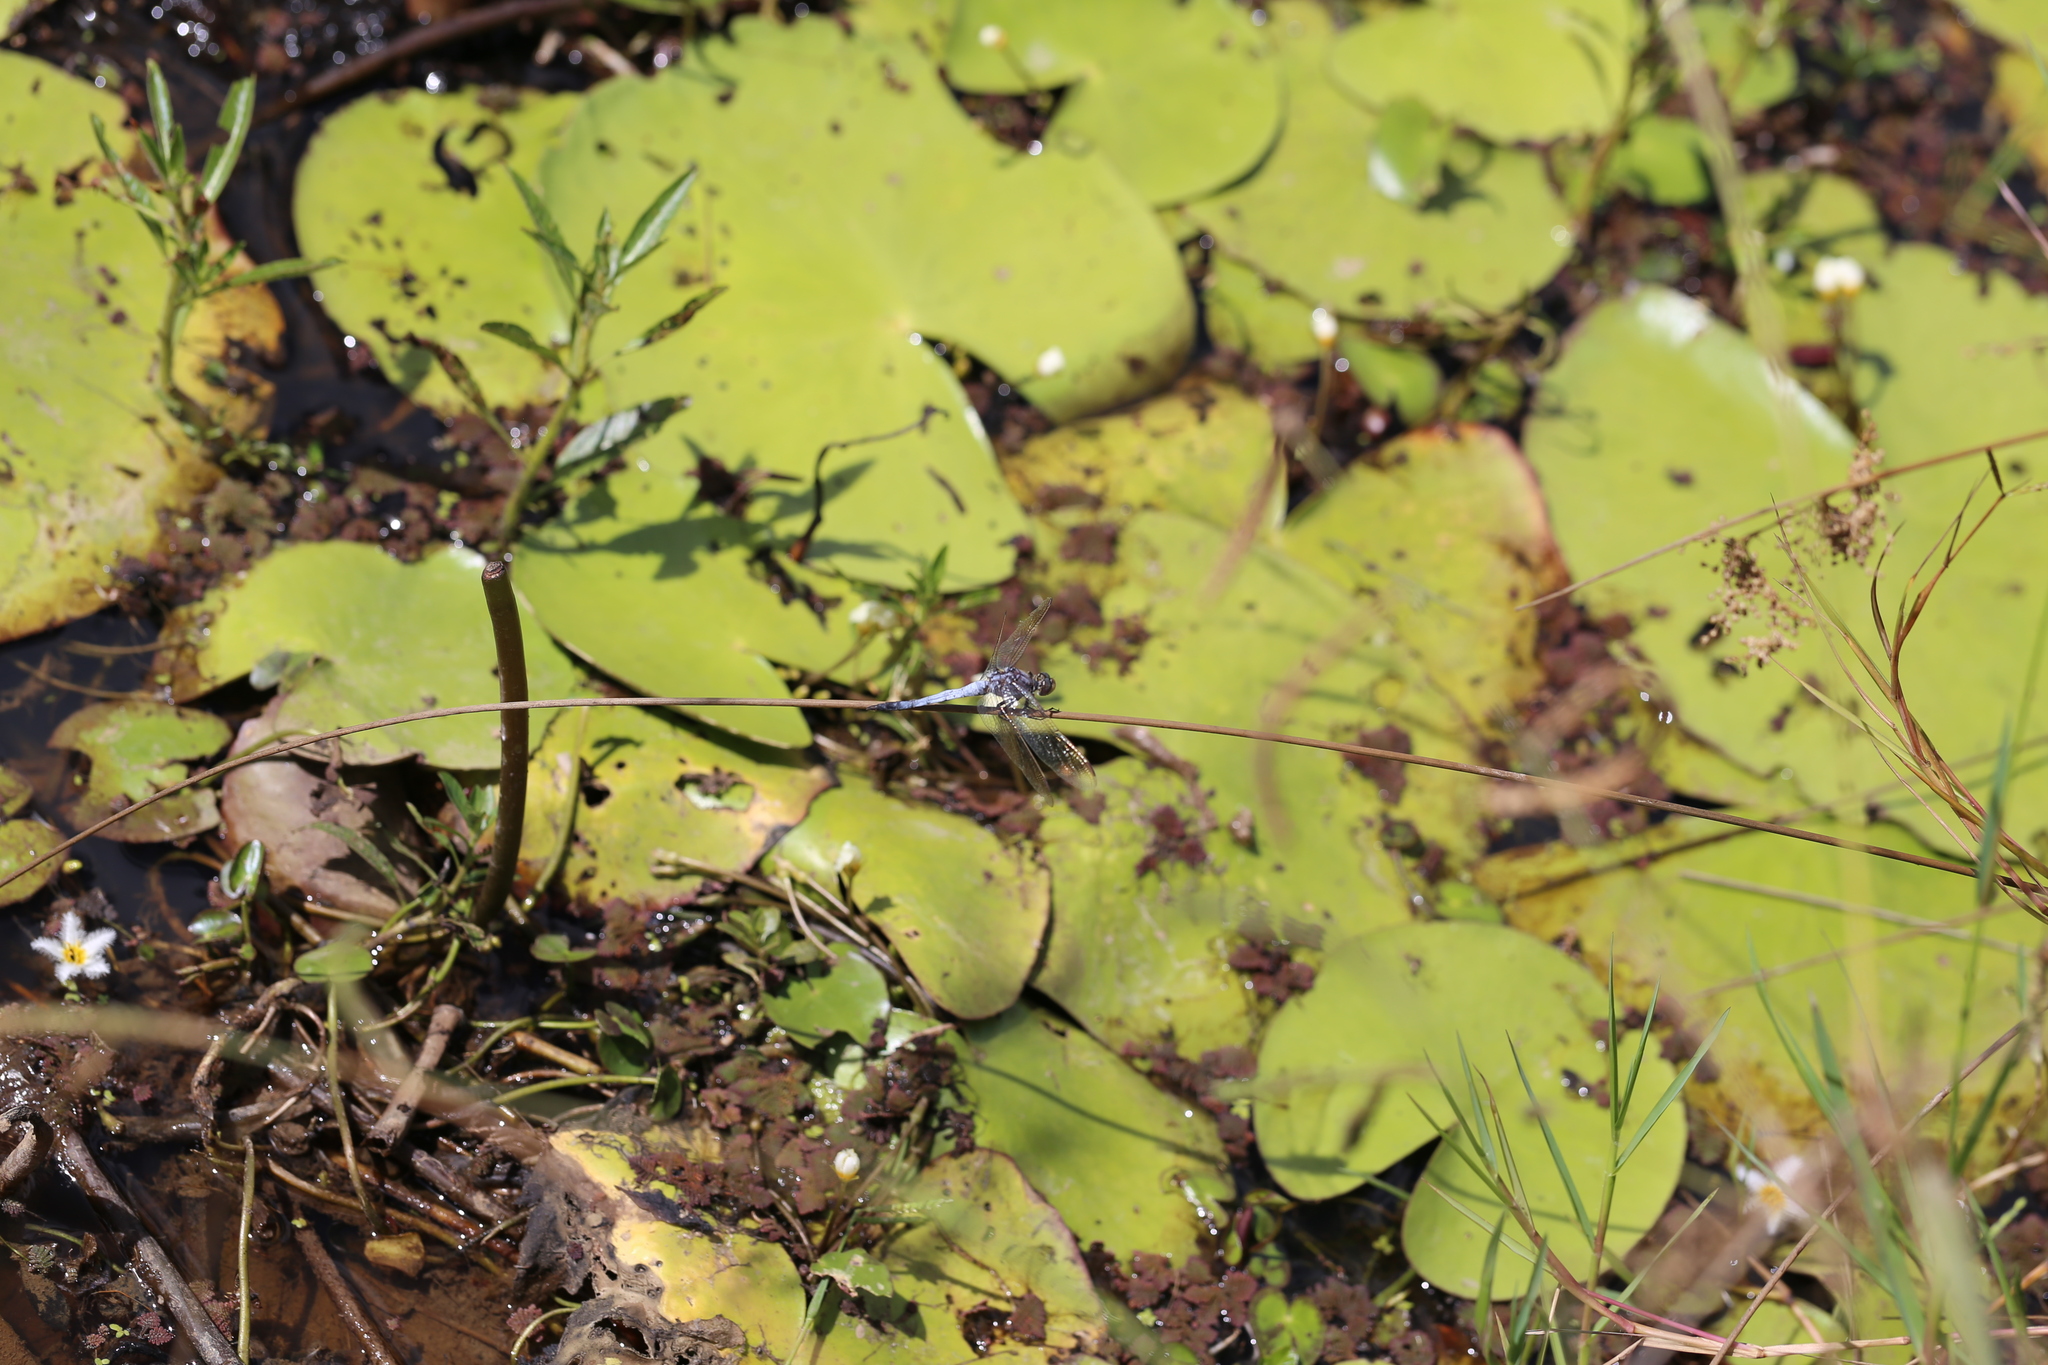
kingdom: Animalia
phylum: Arthropoda
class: Insecta
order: Odonata
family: Libellulidae
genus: Orthetrum
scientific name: Orthetrum caledonicum
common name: Blue skimmer
